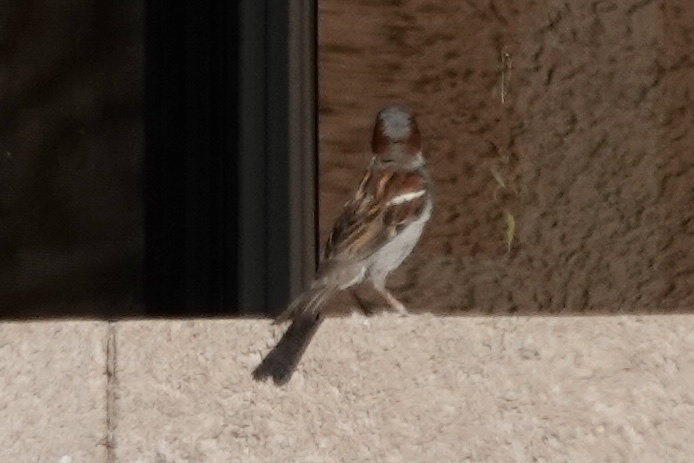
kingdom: Animalia
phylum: Chordata
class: Aves
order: Passeriformes
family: Passeridae
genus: Passer
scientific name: Passer domesticus
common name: House sparrow
